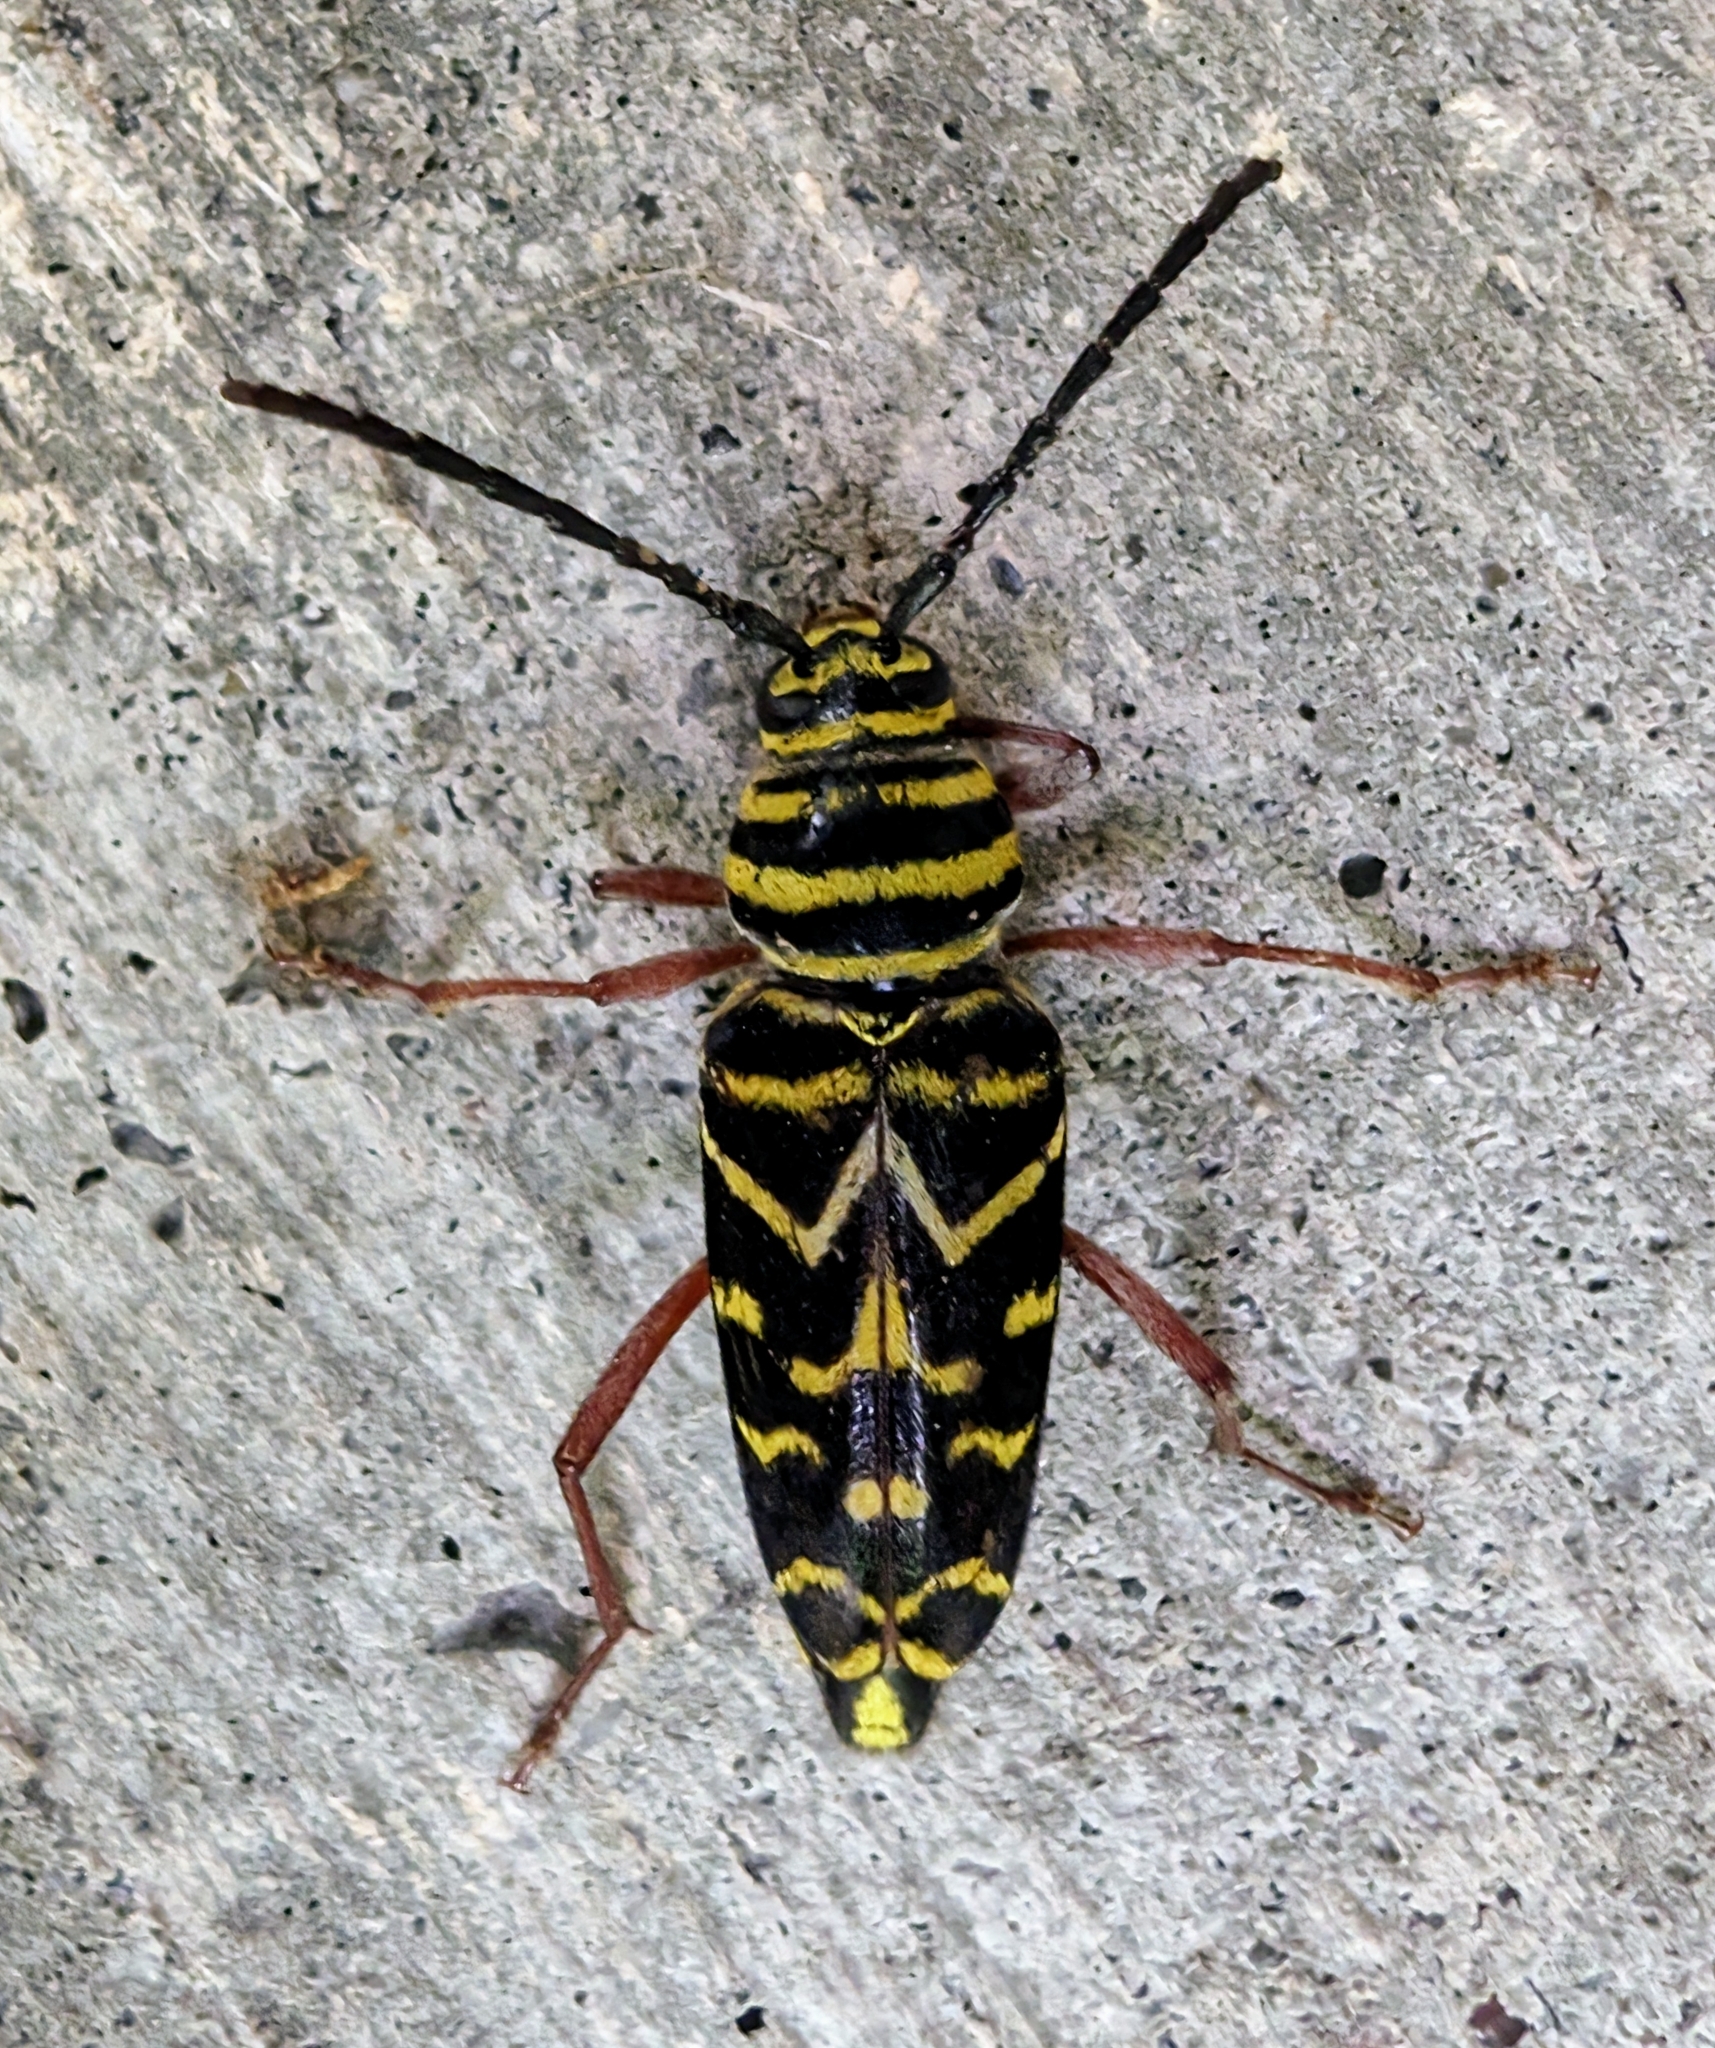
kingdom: Animalia
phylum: Arthropoda
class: Insecta
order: Coleoptera
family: Cerambycidae
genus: Megacyllene
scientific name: Megacyllene caryae
